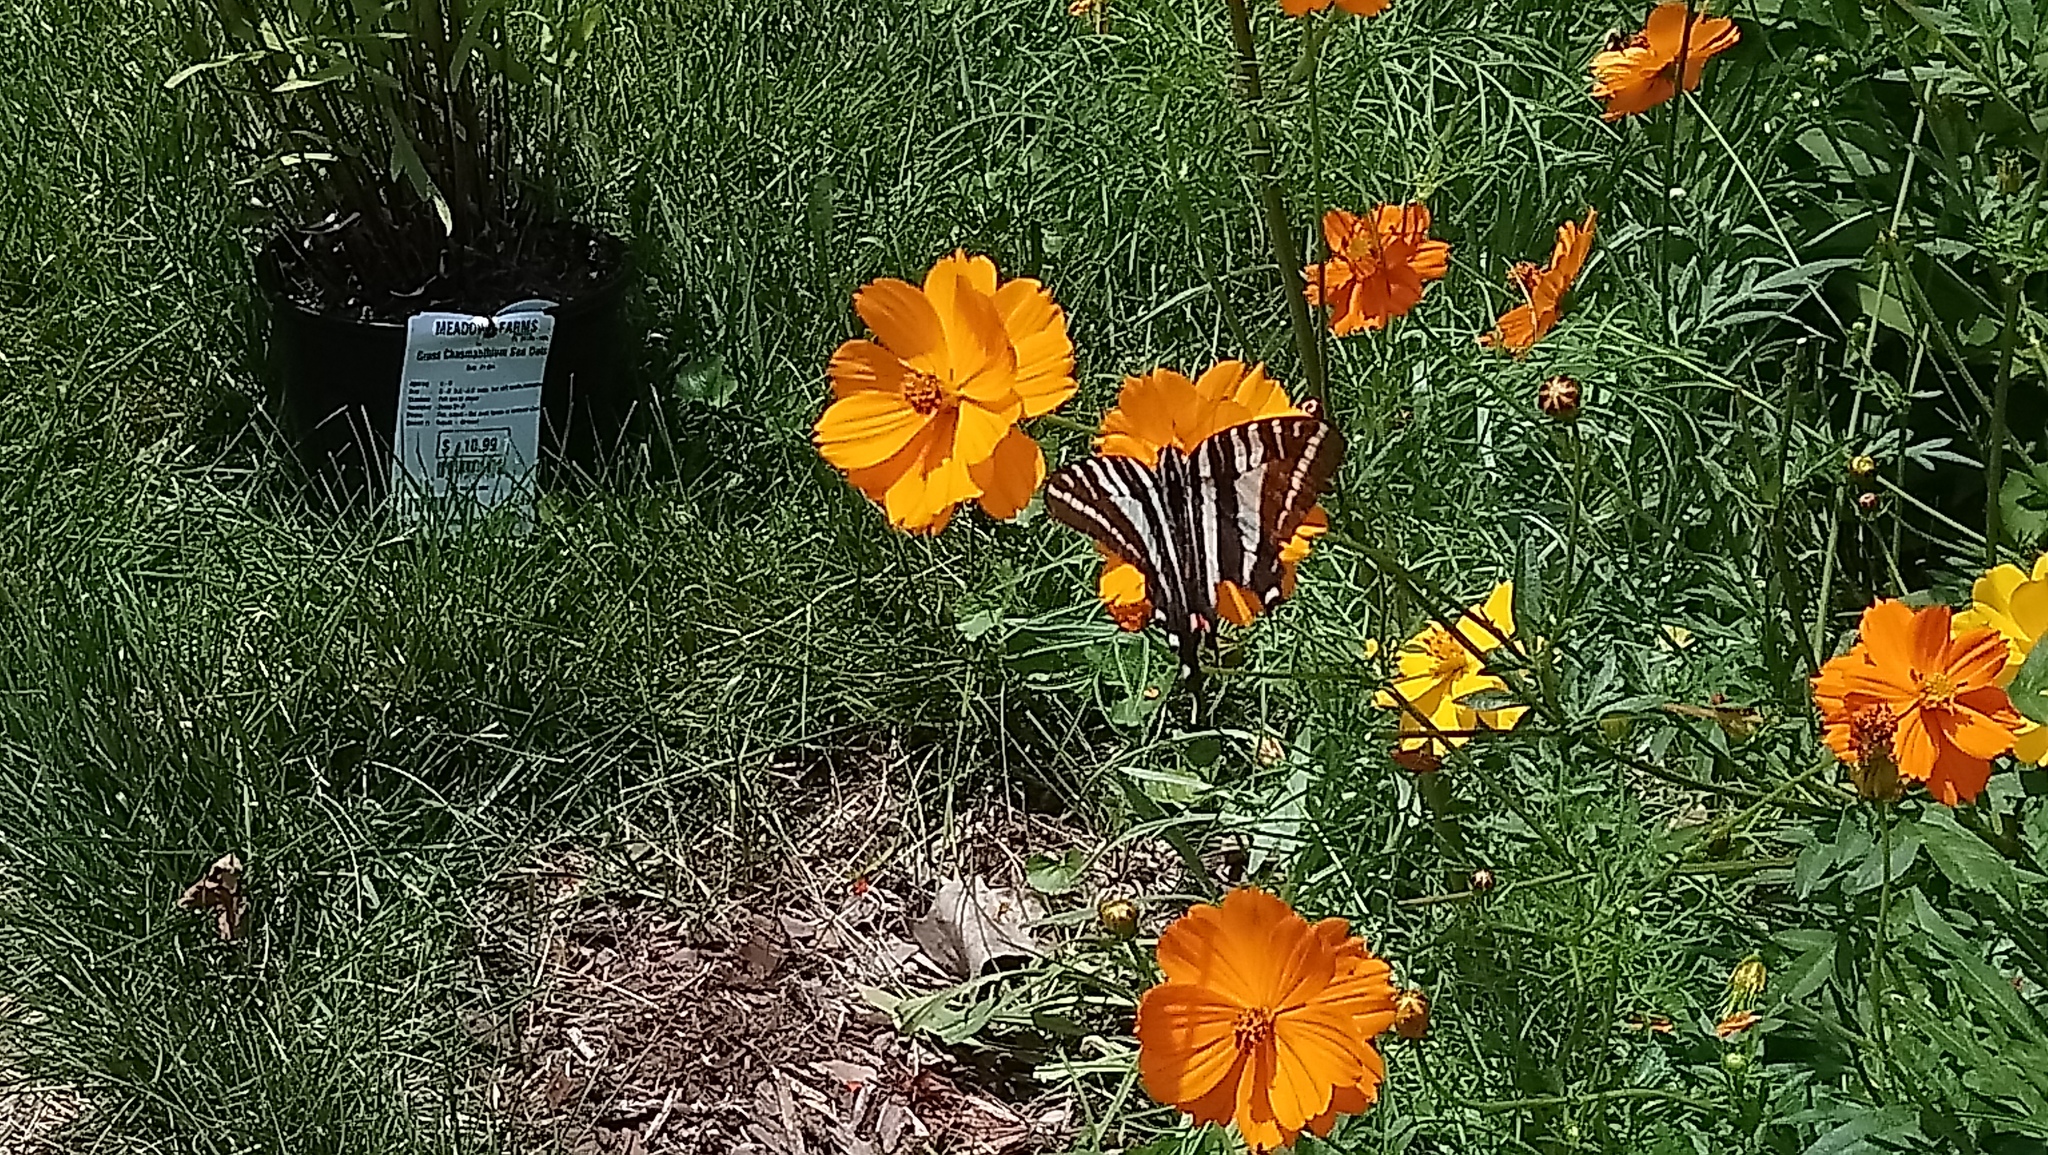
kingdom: Animalia
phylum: Arthropoda
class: Insecta
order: Lepidoptera
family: Papilionidae
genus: Protographium
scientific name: Protographium marcellus
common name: Zebra swallowtail
